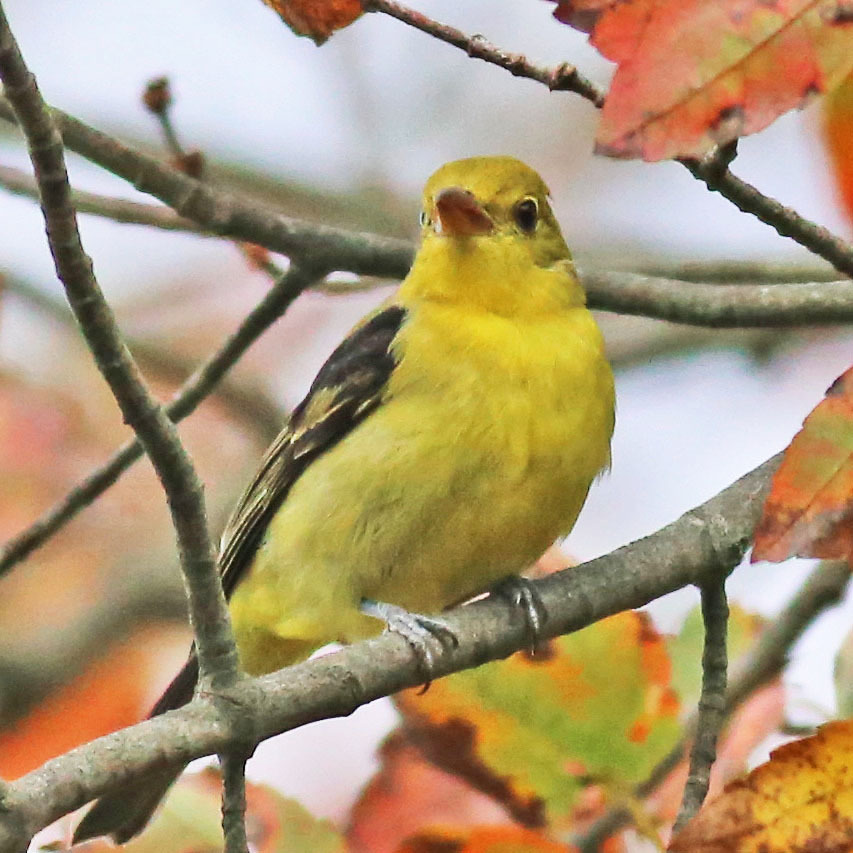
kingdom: Animalia
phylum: Chordata
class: Aves
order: Passeriformes
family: Cardinalidae
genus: Piranga
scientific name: Piranga olivacea
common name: Scarlet tanager
